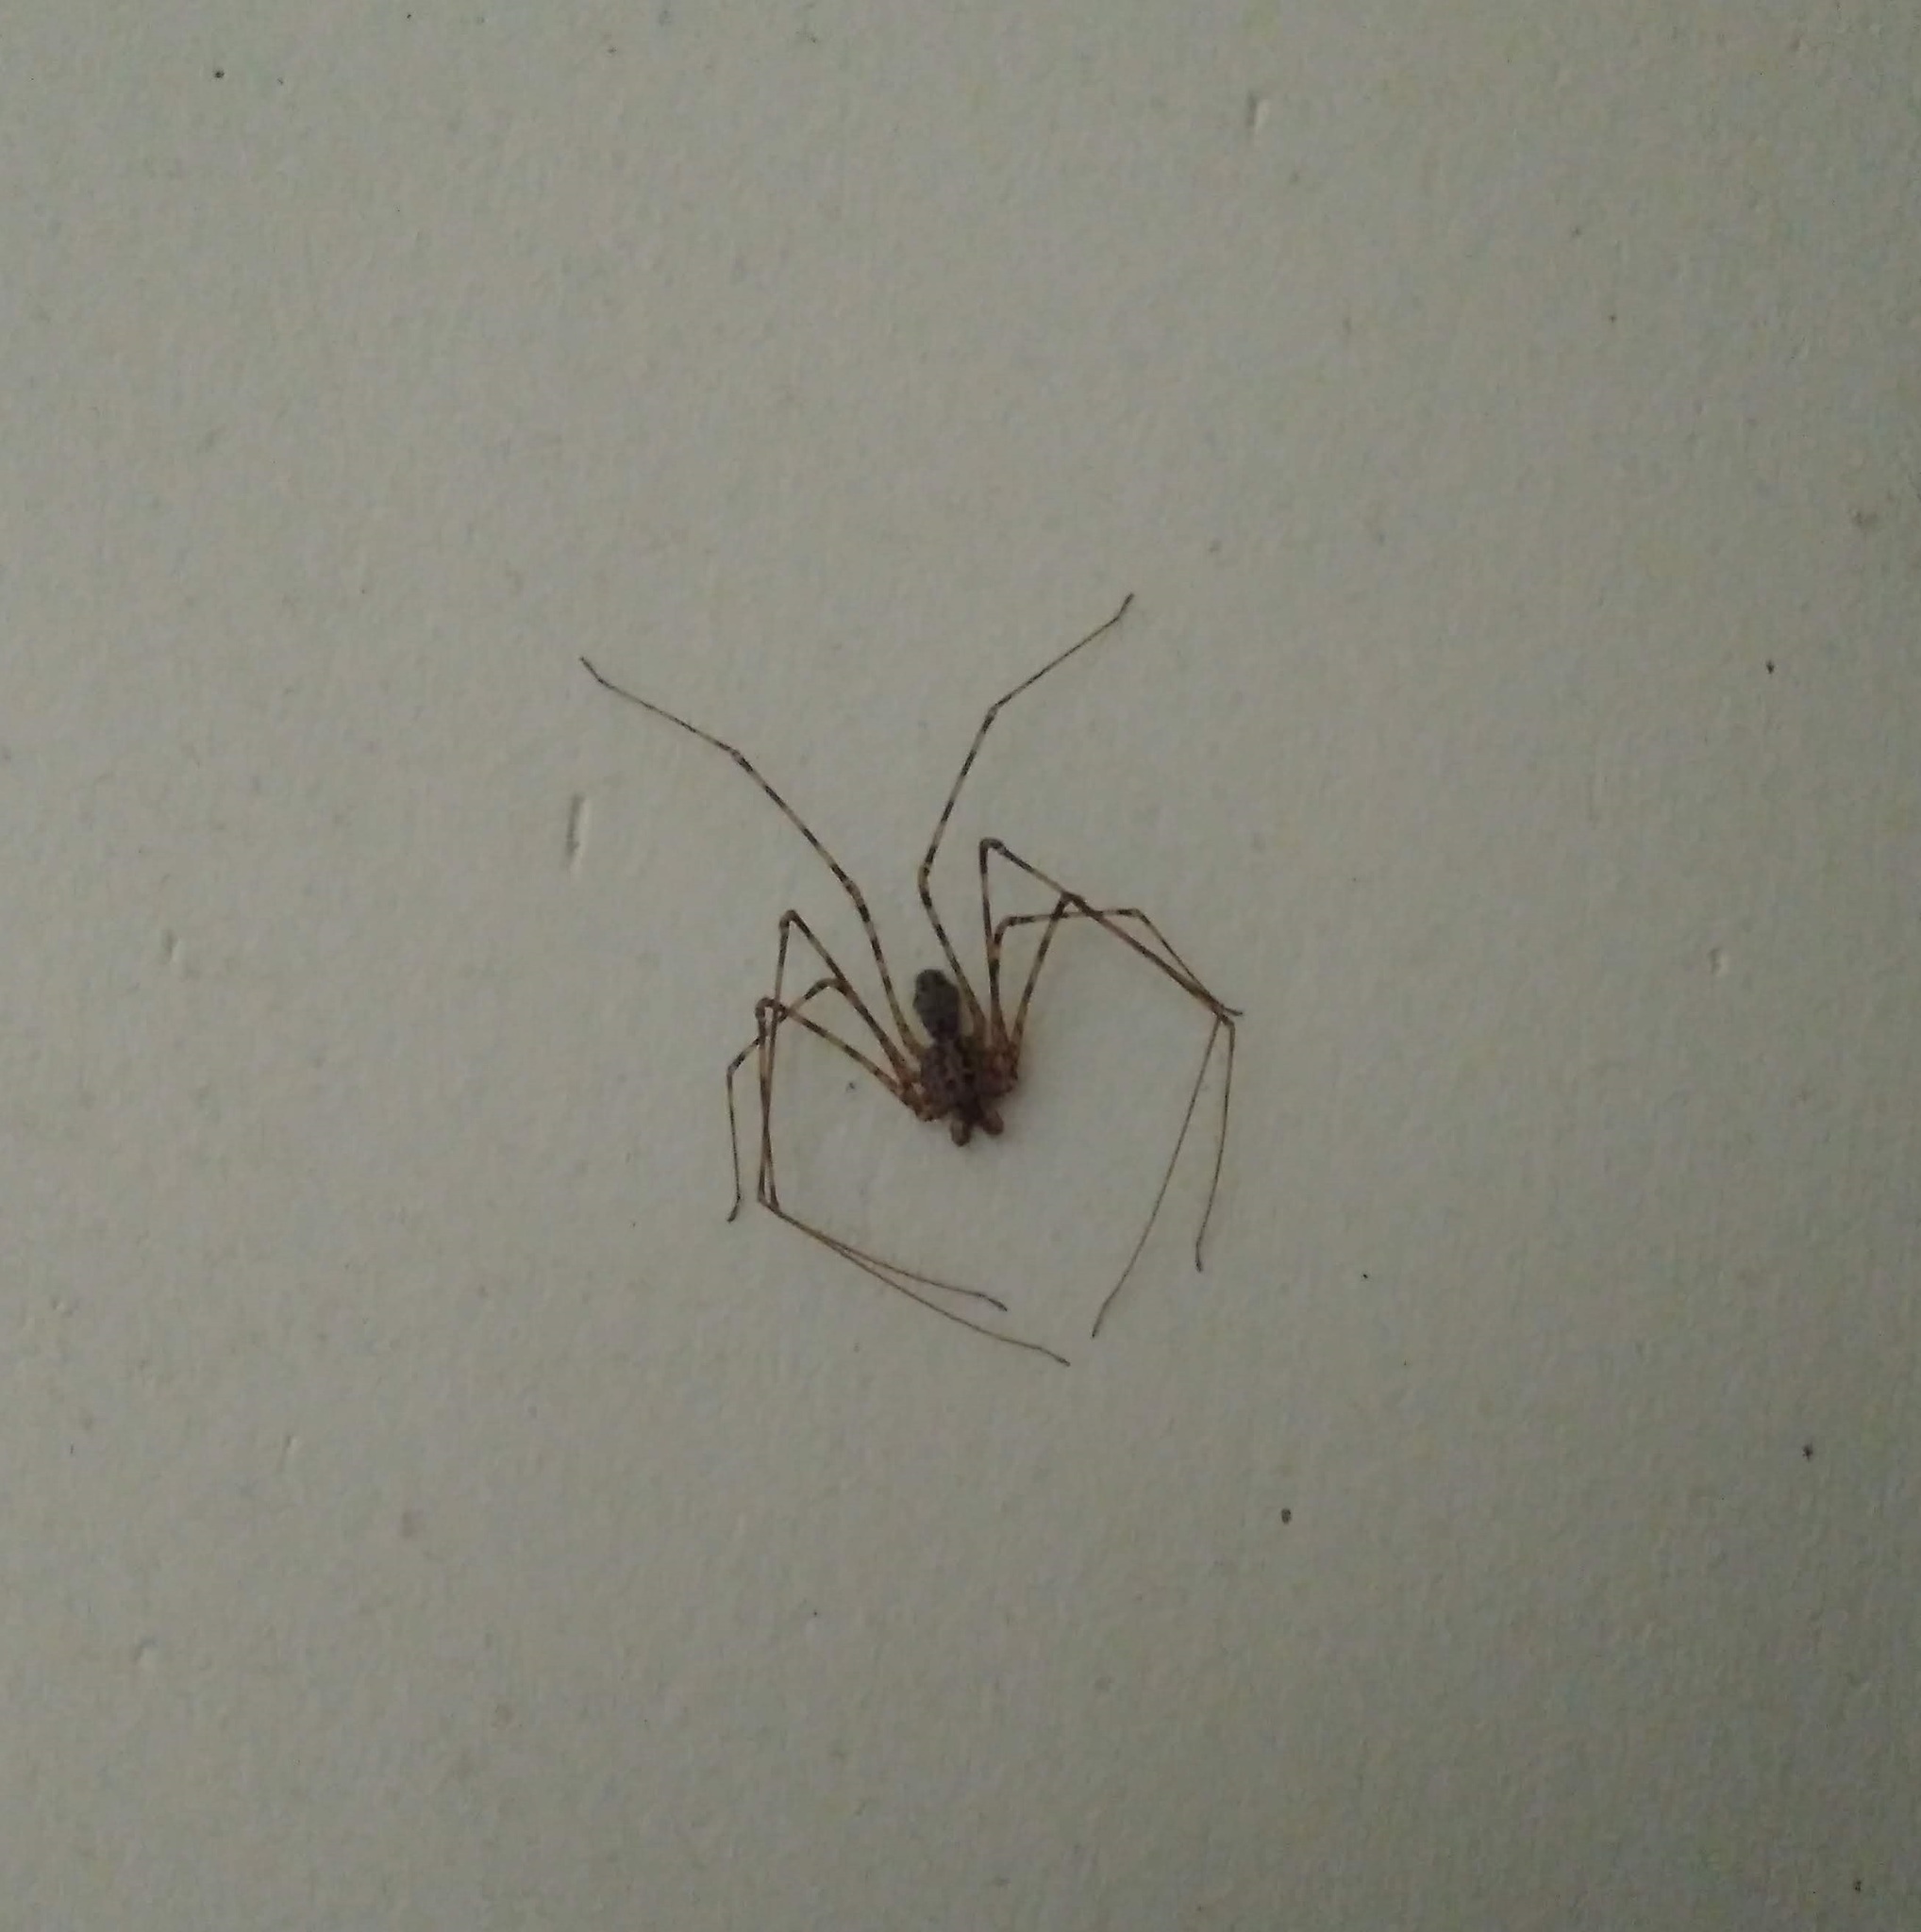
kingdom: Animalia
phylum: Arthropoda
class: Arachnida
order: Araneae
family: Scytodidae
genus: Scytodes
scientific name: Scytodes globula
